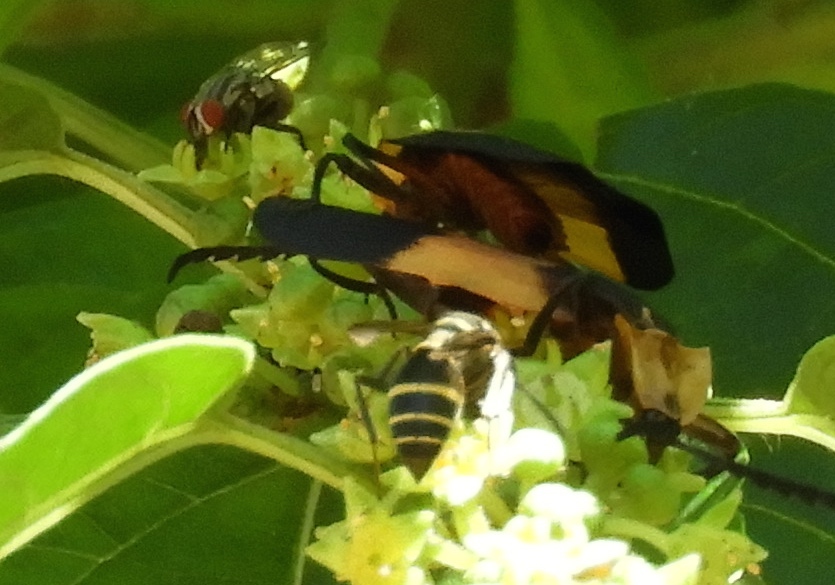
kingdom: Animalia
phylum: Arthropoda
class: Insecta
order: Coleoptera
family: Lycidae
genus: Lycus
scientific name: Lycus
